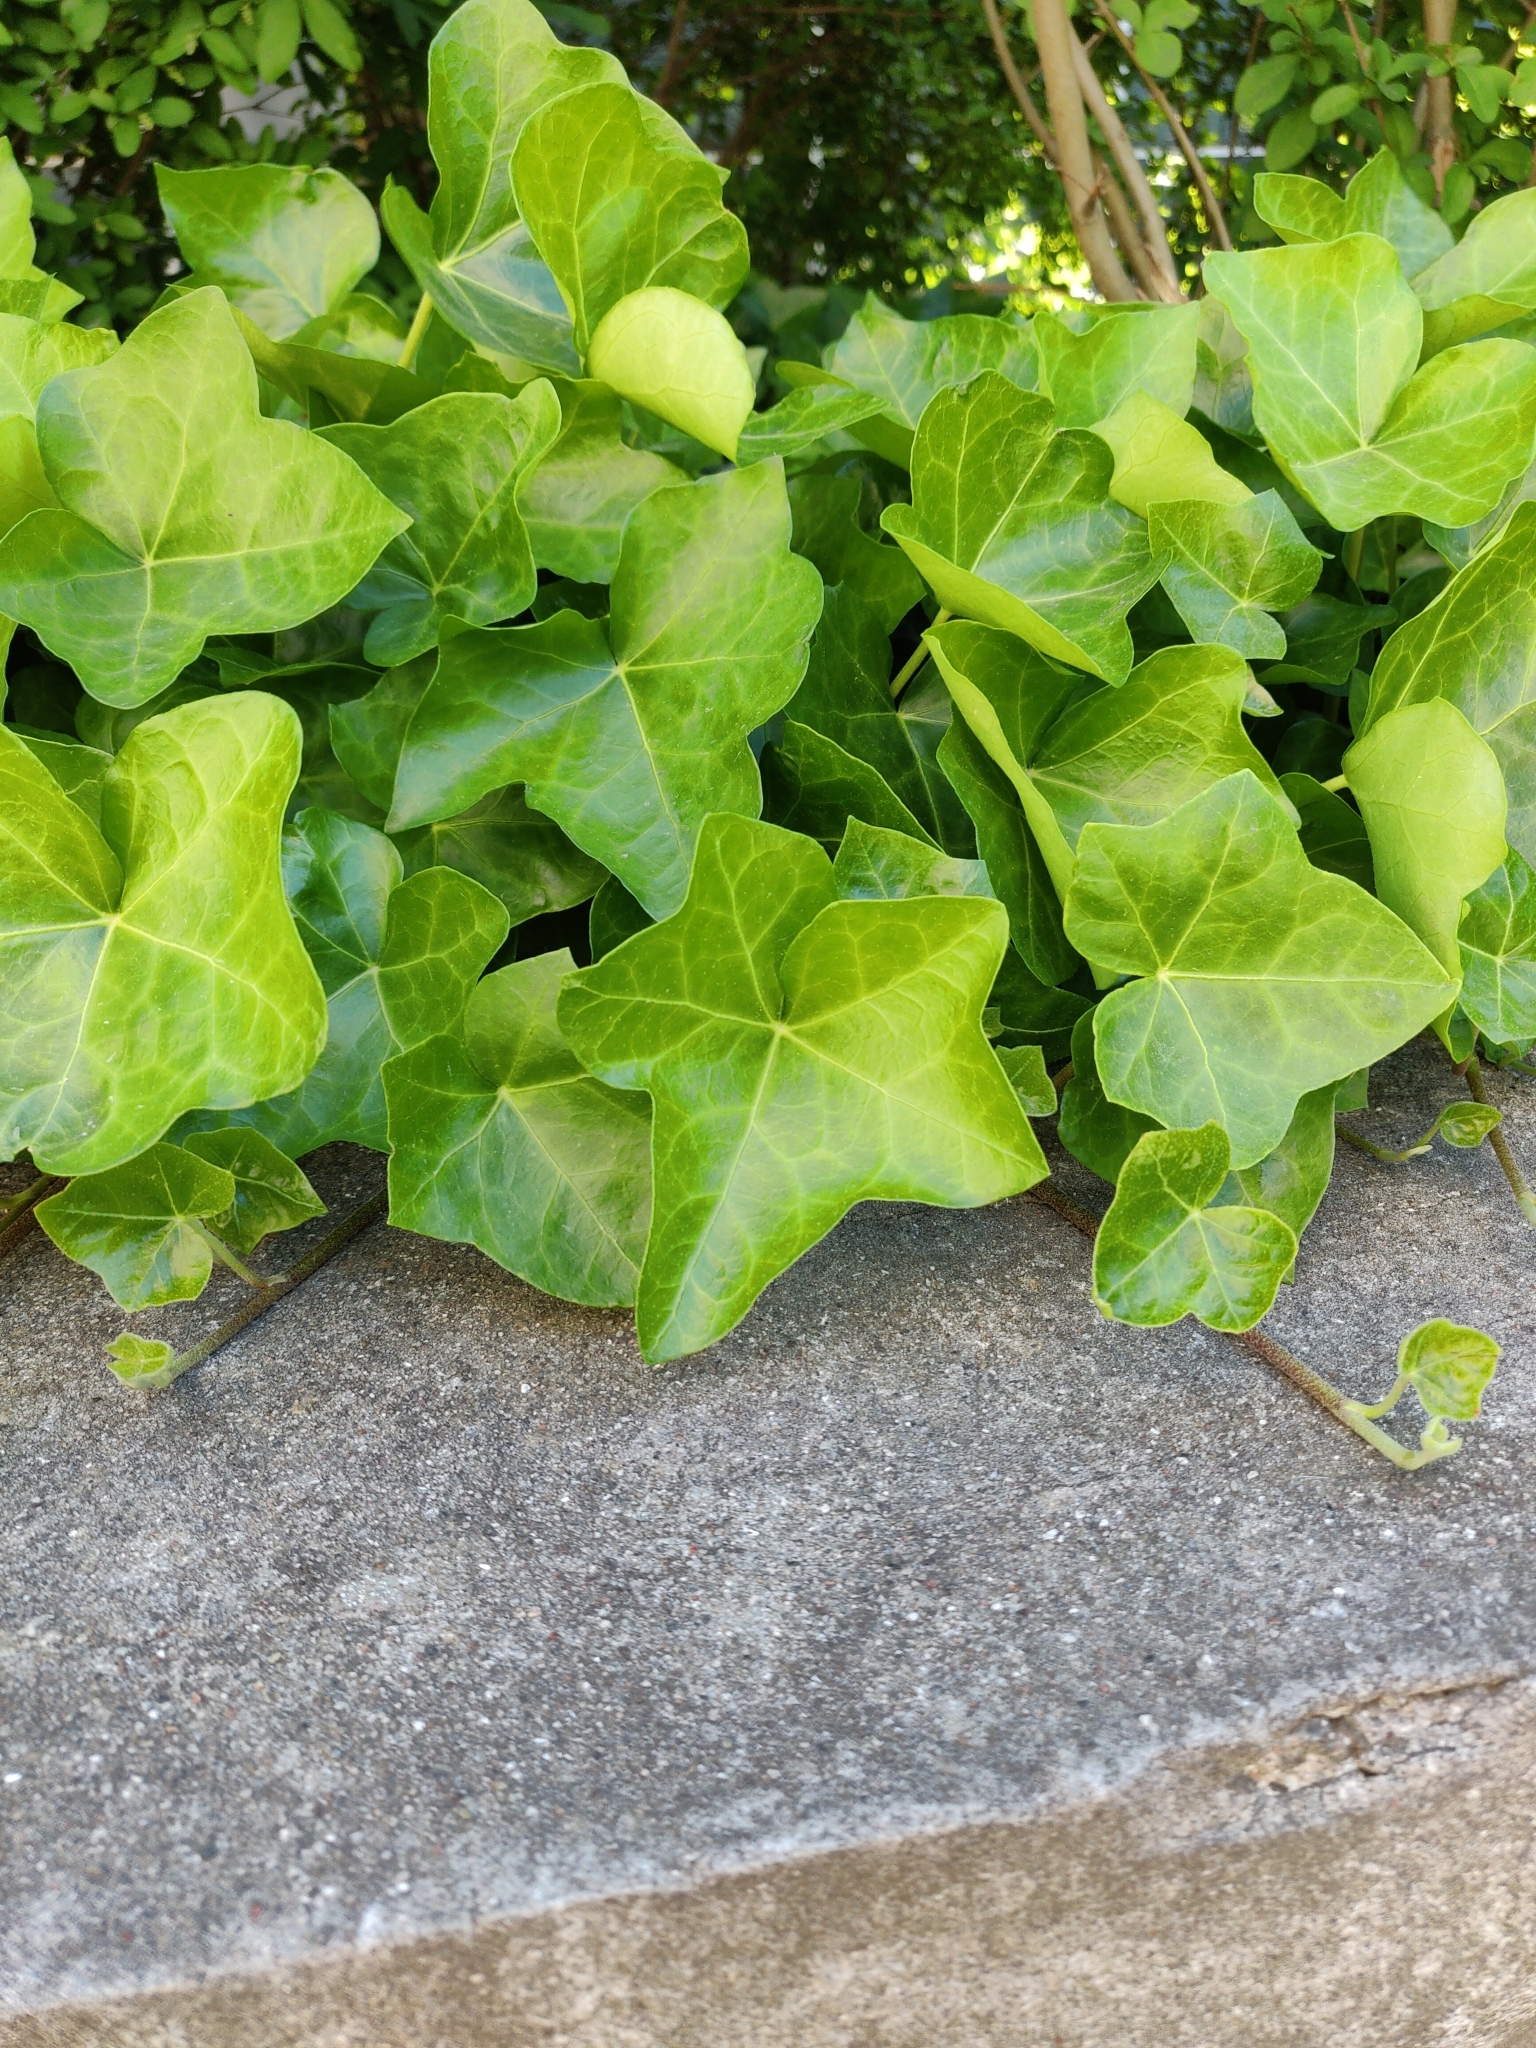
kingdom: Plantae
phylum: Tracheophyta
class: Magnoliopsida
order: Apiales
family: Araliaceae
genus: Hedera
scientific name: Hedera helix
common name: Ivy
